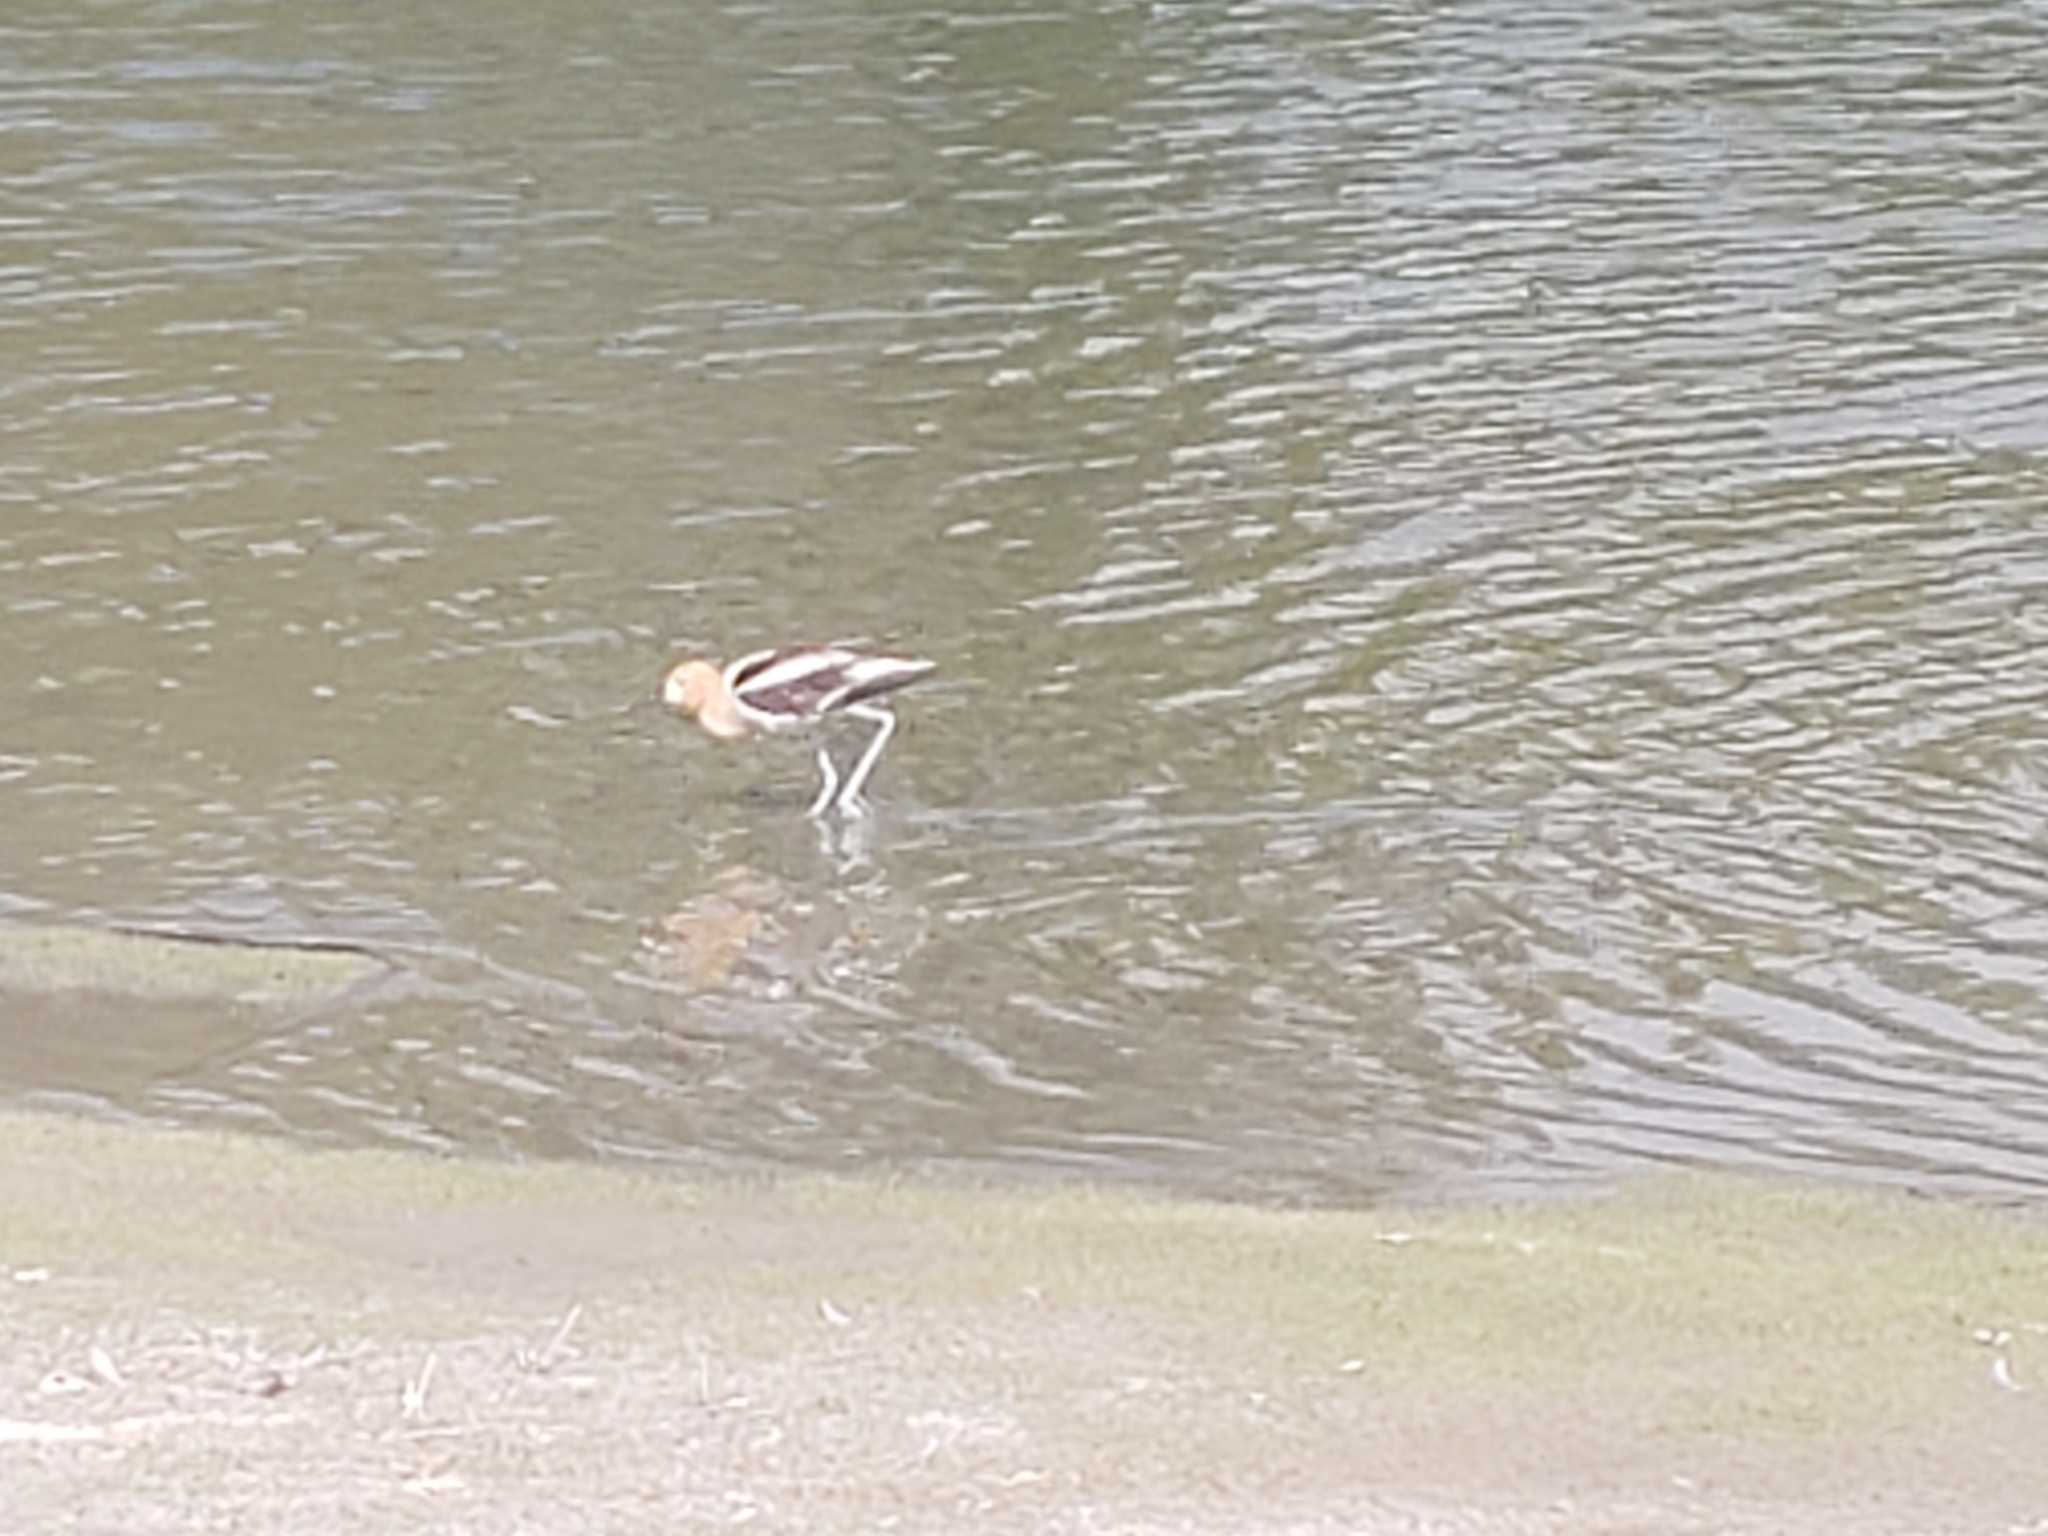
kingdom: Animalia
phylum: Chordata
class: Aves
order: Charadriiformes
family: Recurvirostridae
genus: Recurvirostra
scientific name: Recurvirostra americana
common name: American avocet
